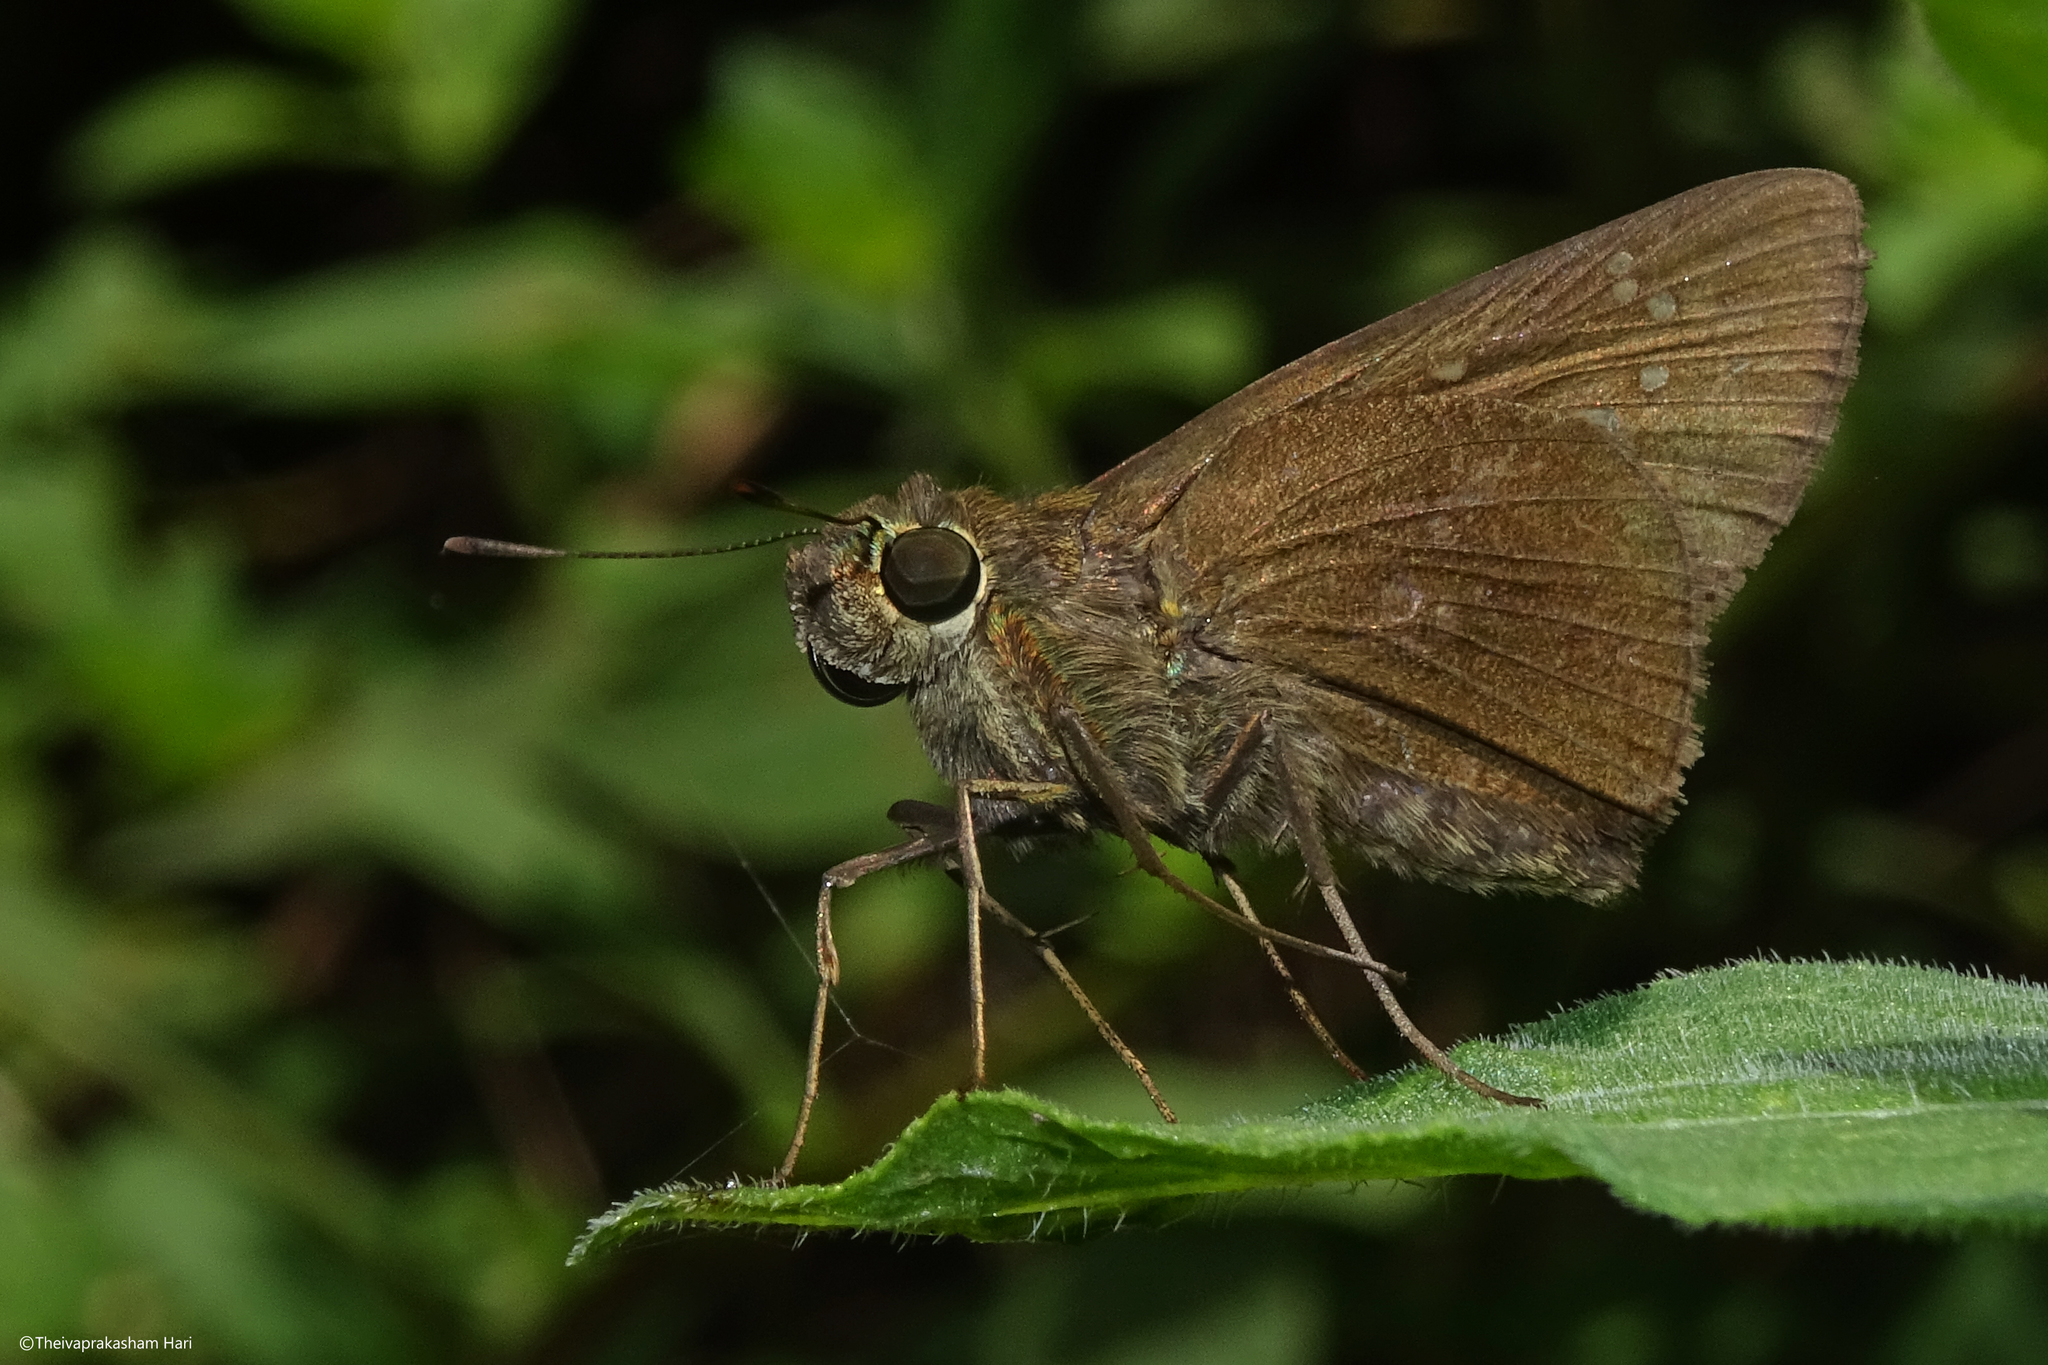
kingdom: Animalia
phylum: Arthropoda
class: Insecta
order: Lepidoptera
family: Hesperiidae
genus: Baoris
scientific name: Baoris farri
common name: Paintbrush swift
